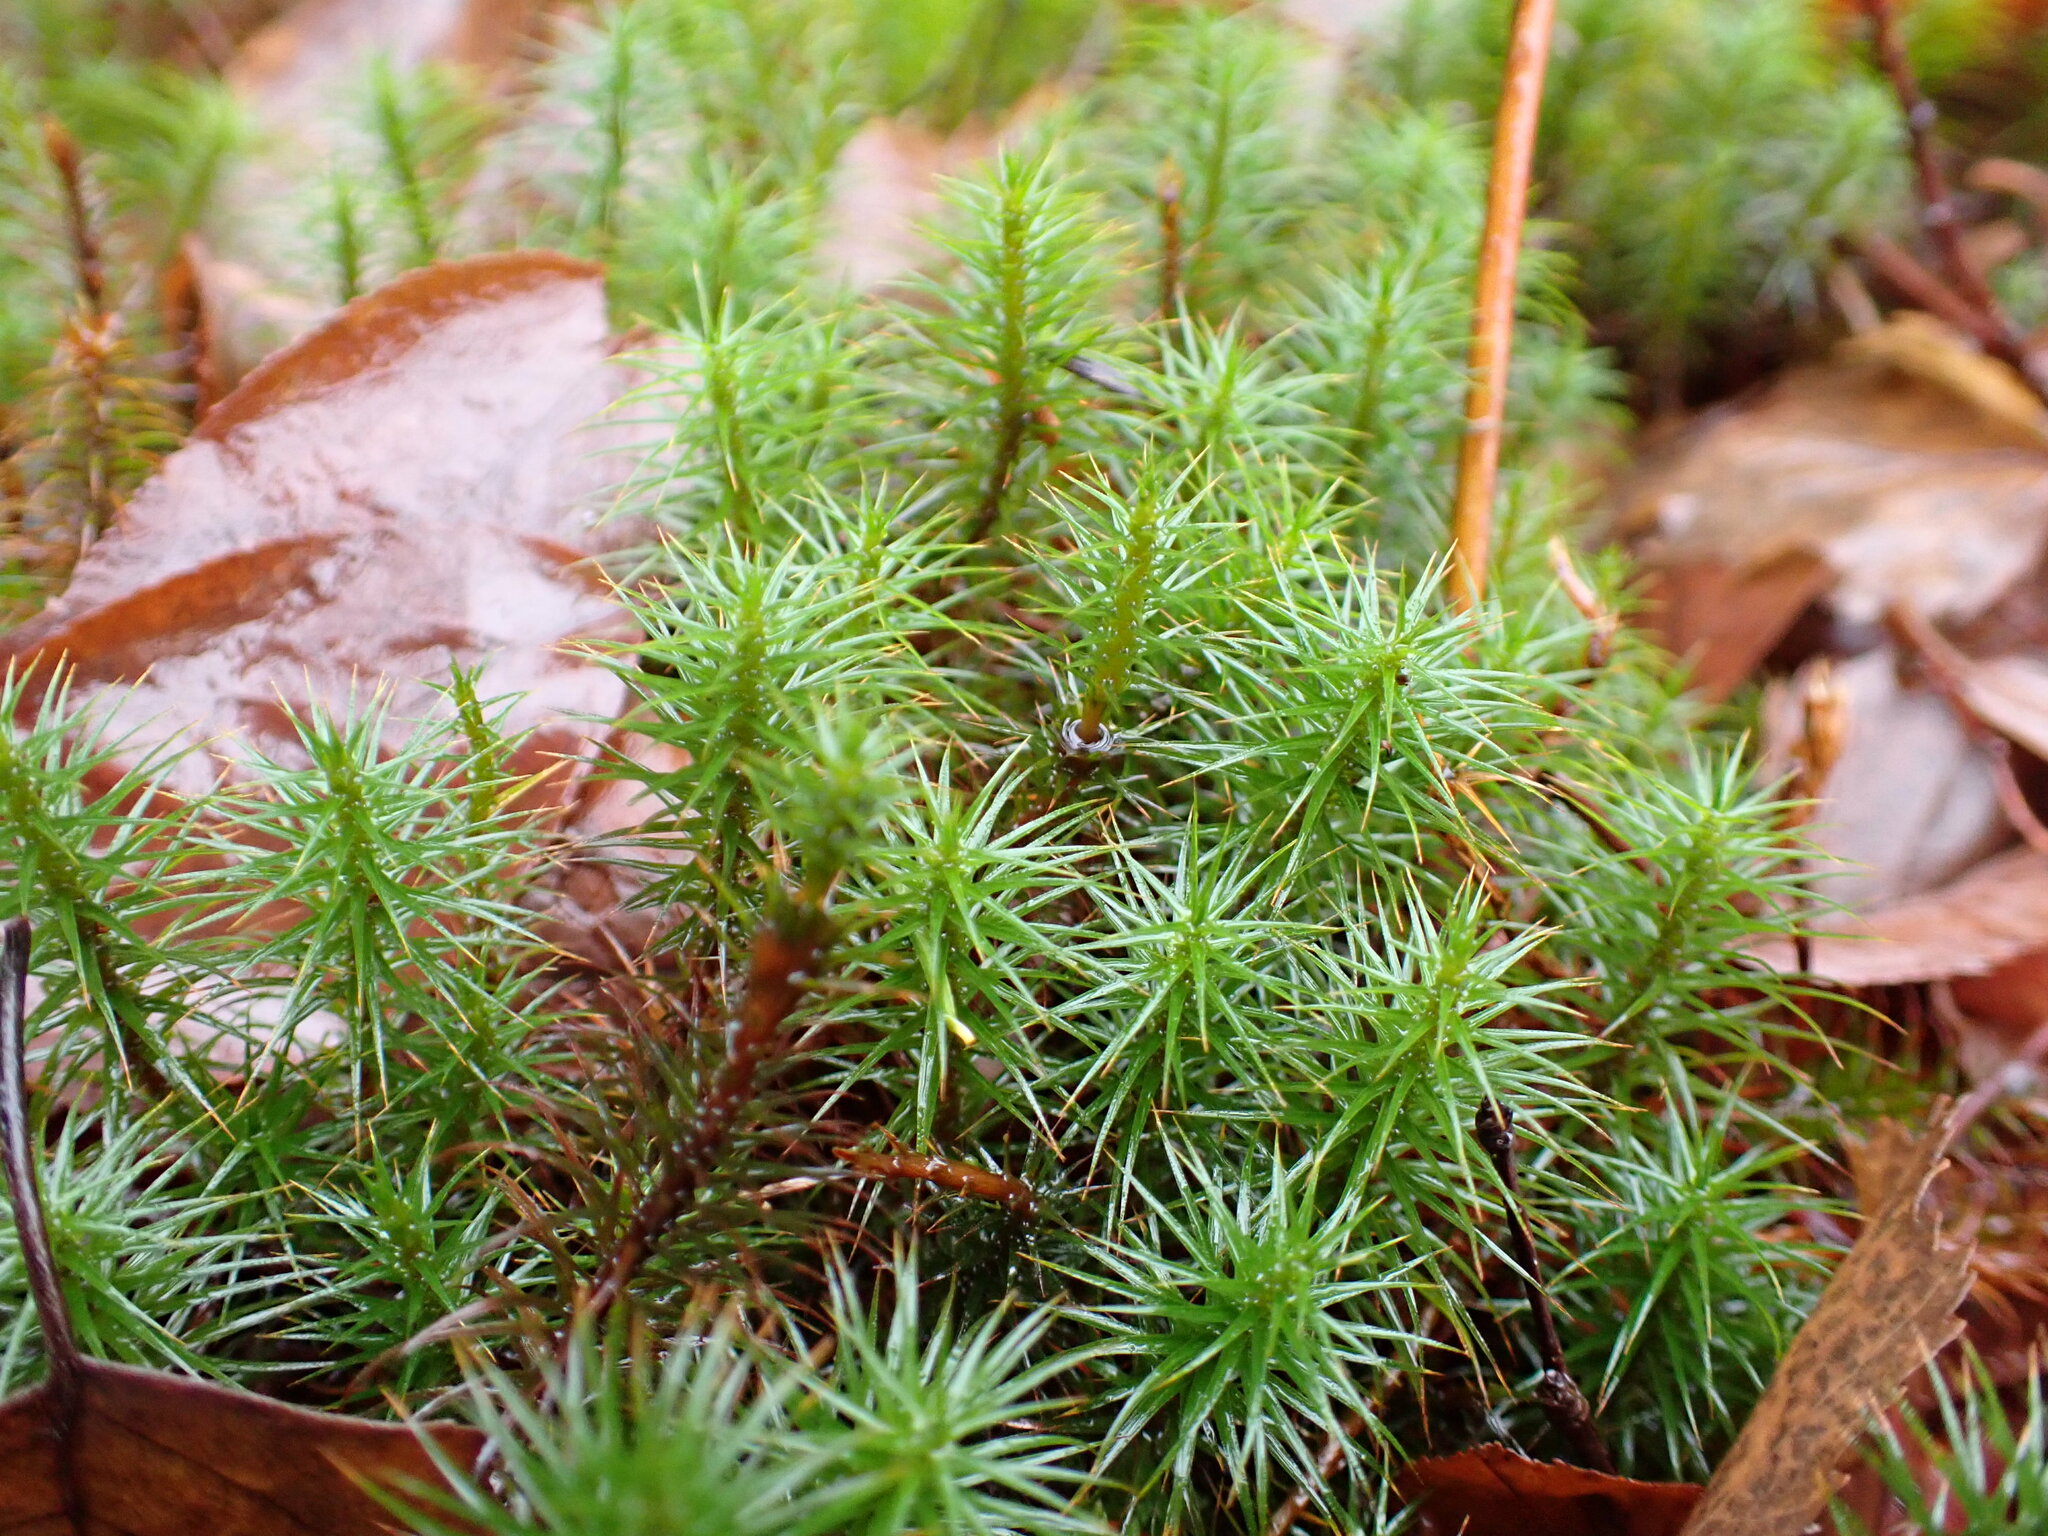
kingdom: Plantae
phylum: Bryophyta
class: Polytrichopsida
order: Polytrichales
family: Polytrichaceae
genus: Polytrichum
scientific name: Polytrichum commune
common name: Common haircap
